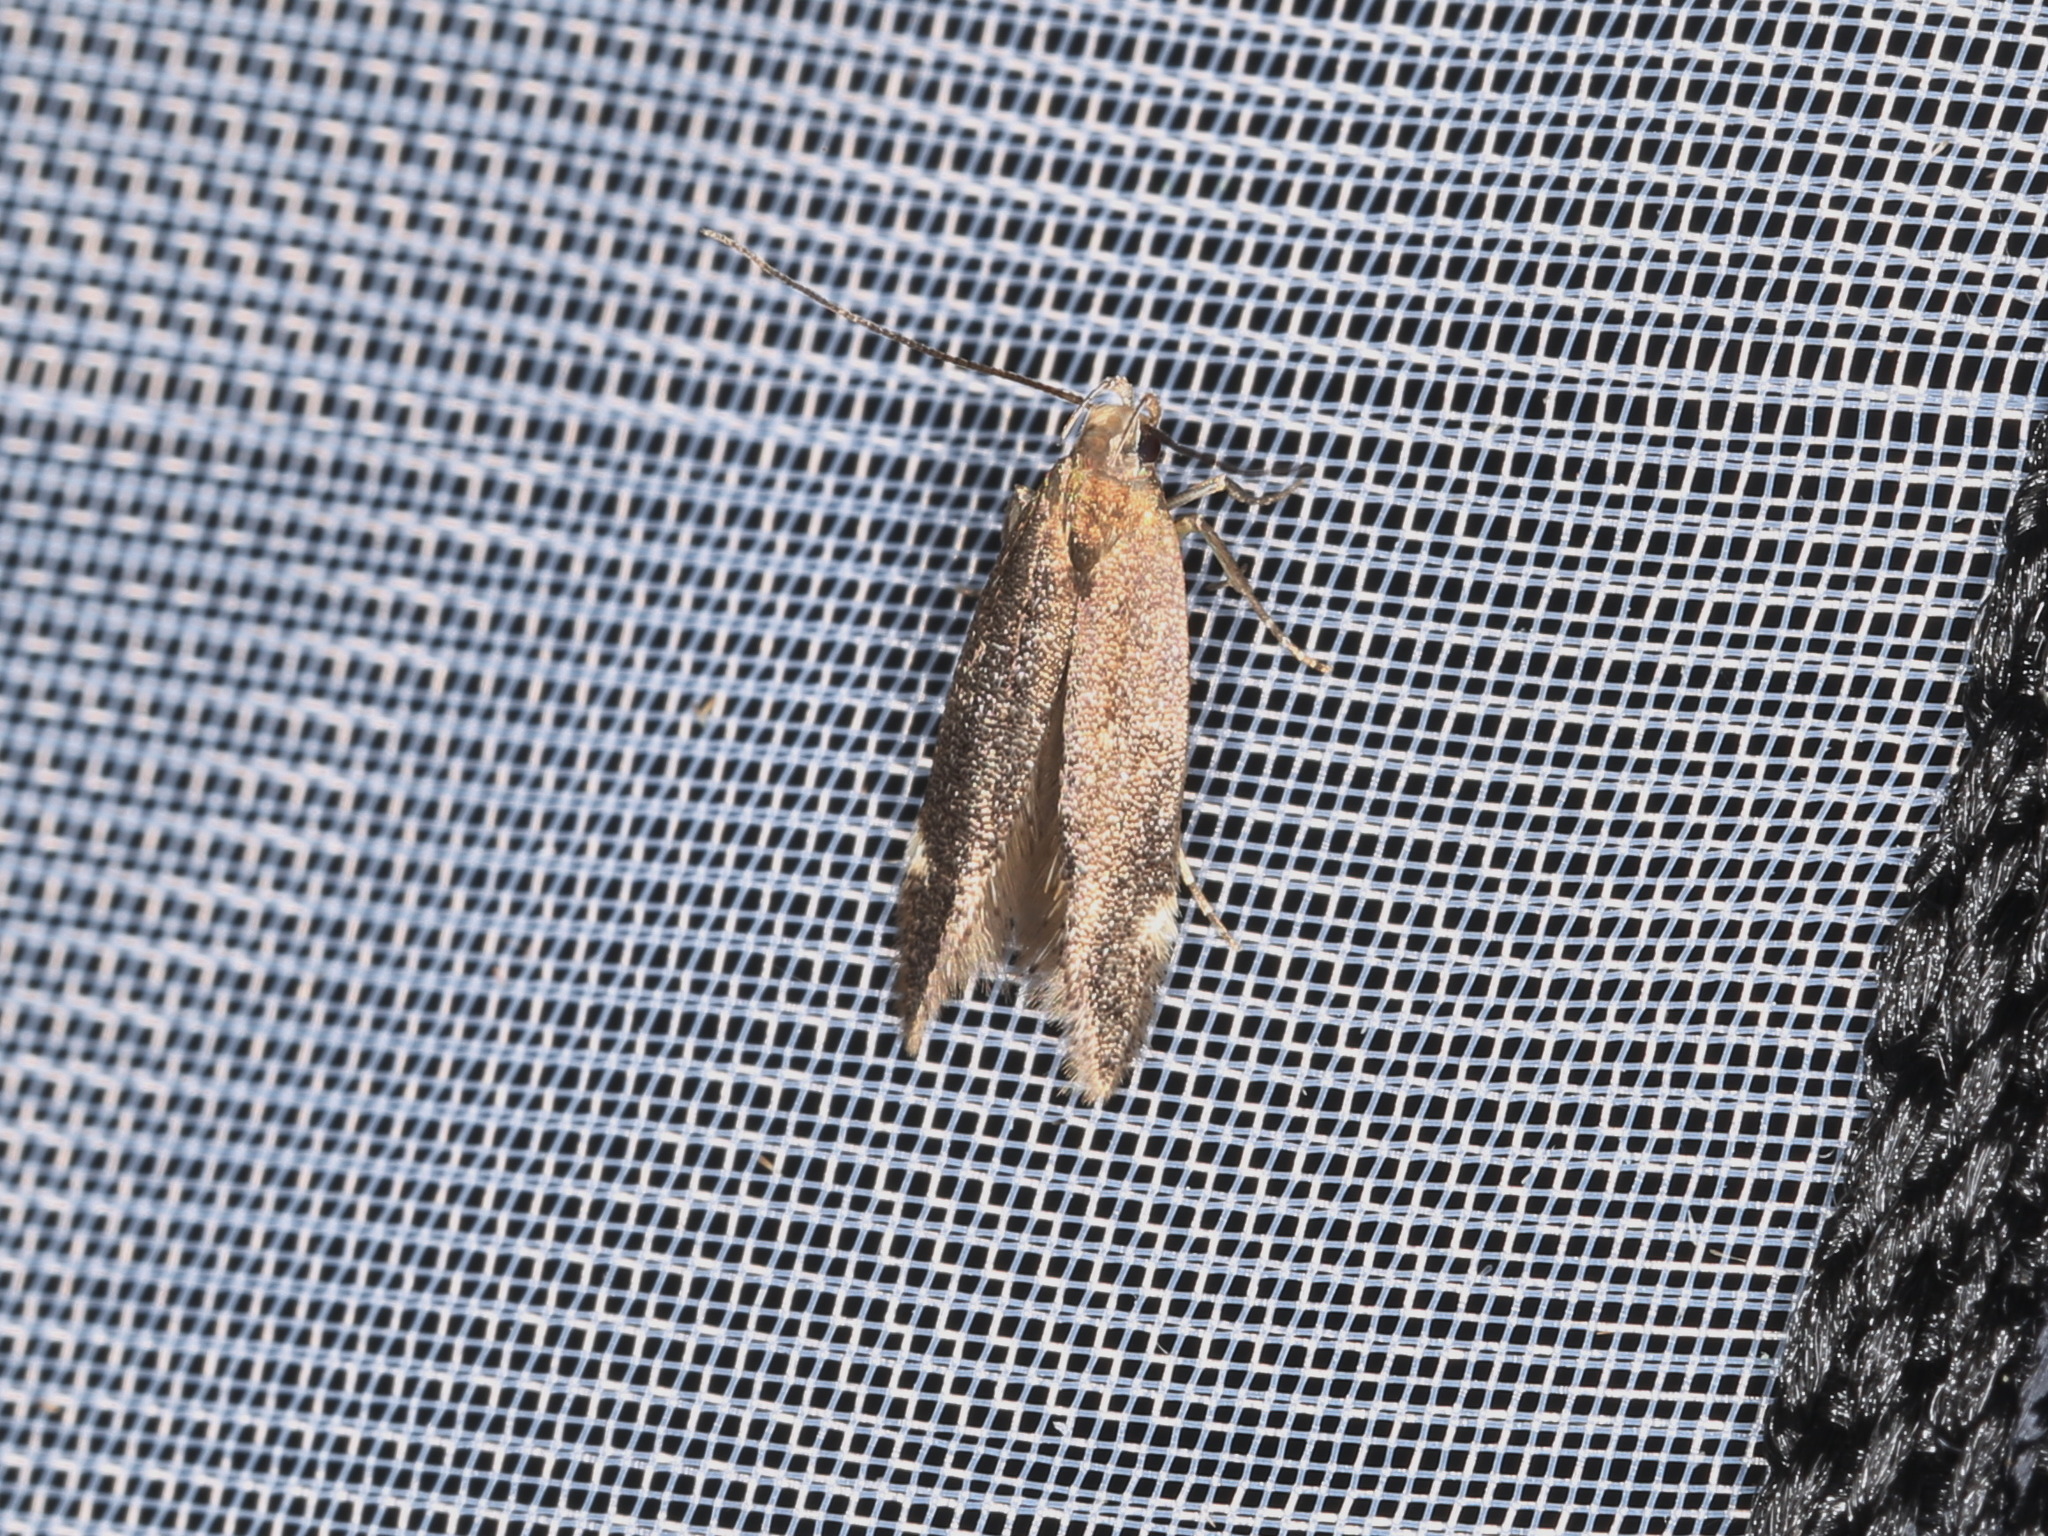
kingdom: Animalia
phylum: Arthropoda
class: Insecta
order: Lepidoptera
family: Gelechiidae
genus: Aproaerema
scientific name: Aproaerema anthyllidella
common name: Vetch sober
